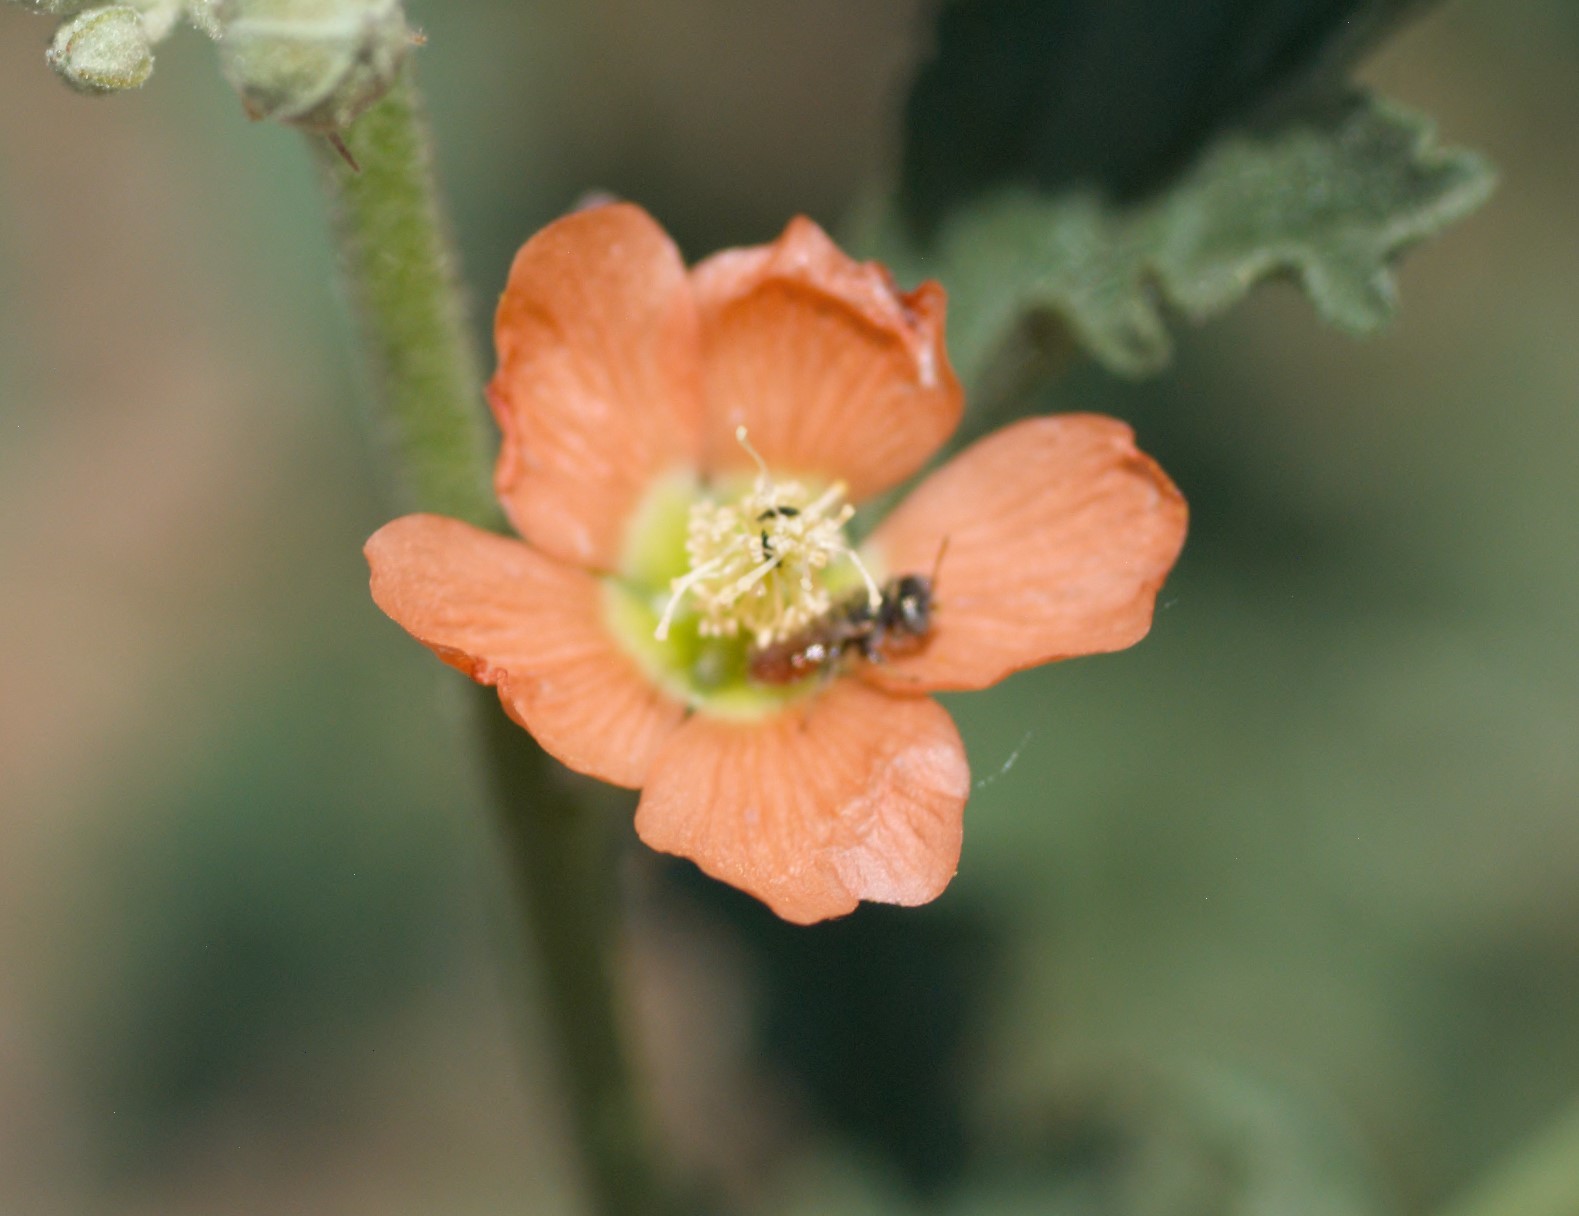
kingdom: Animalia
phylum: Arthropoda
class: Insecta
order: Hymenoptera
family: Andrenidae
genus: Macrotera
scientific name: Macrotera latior
